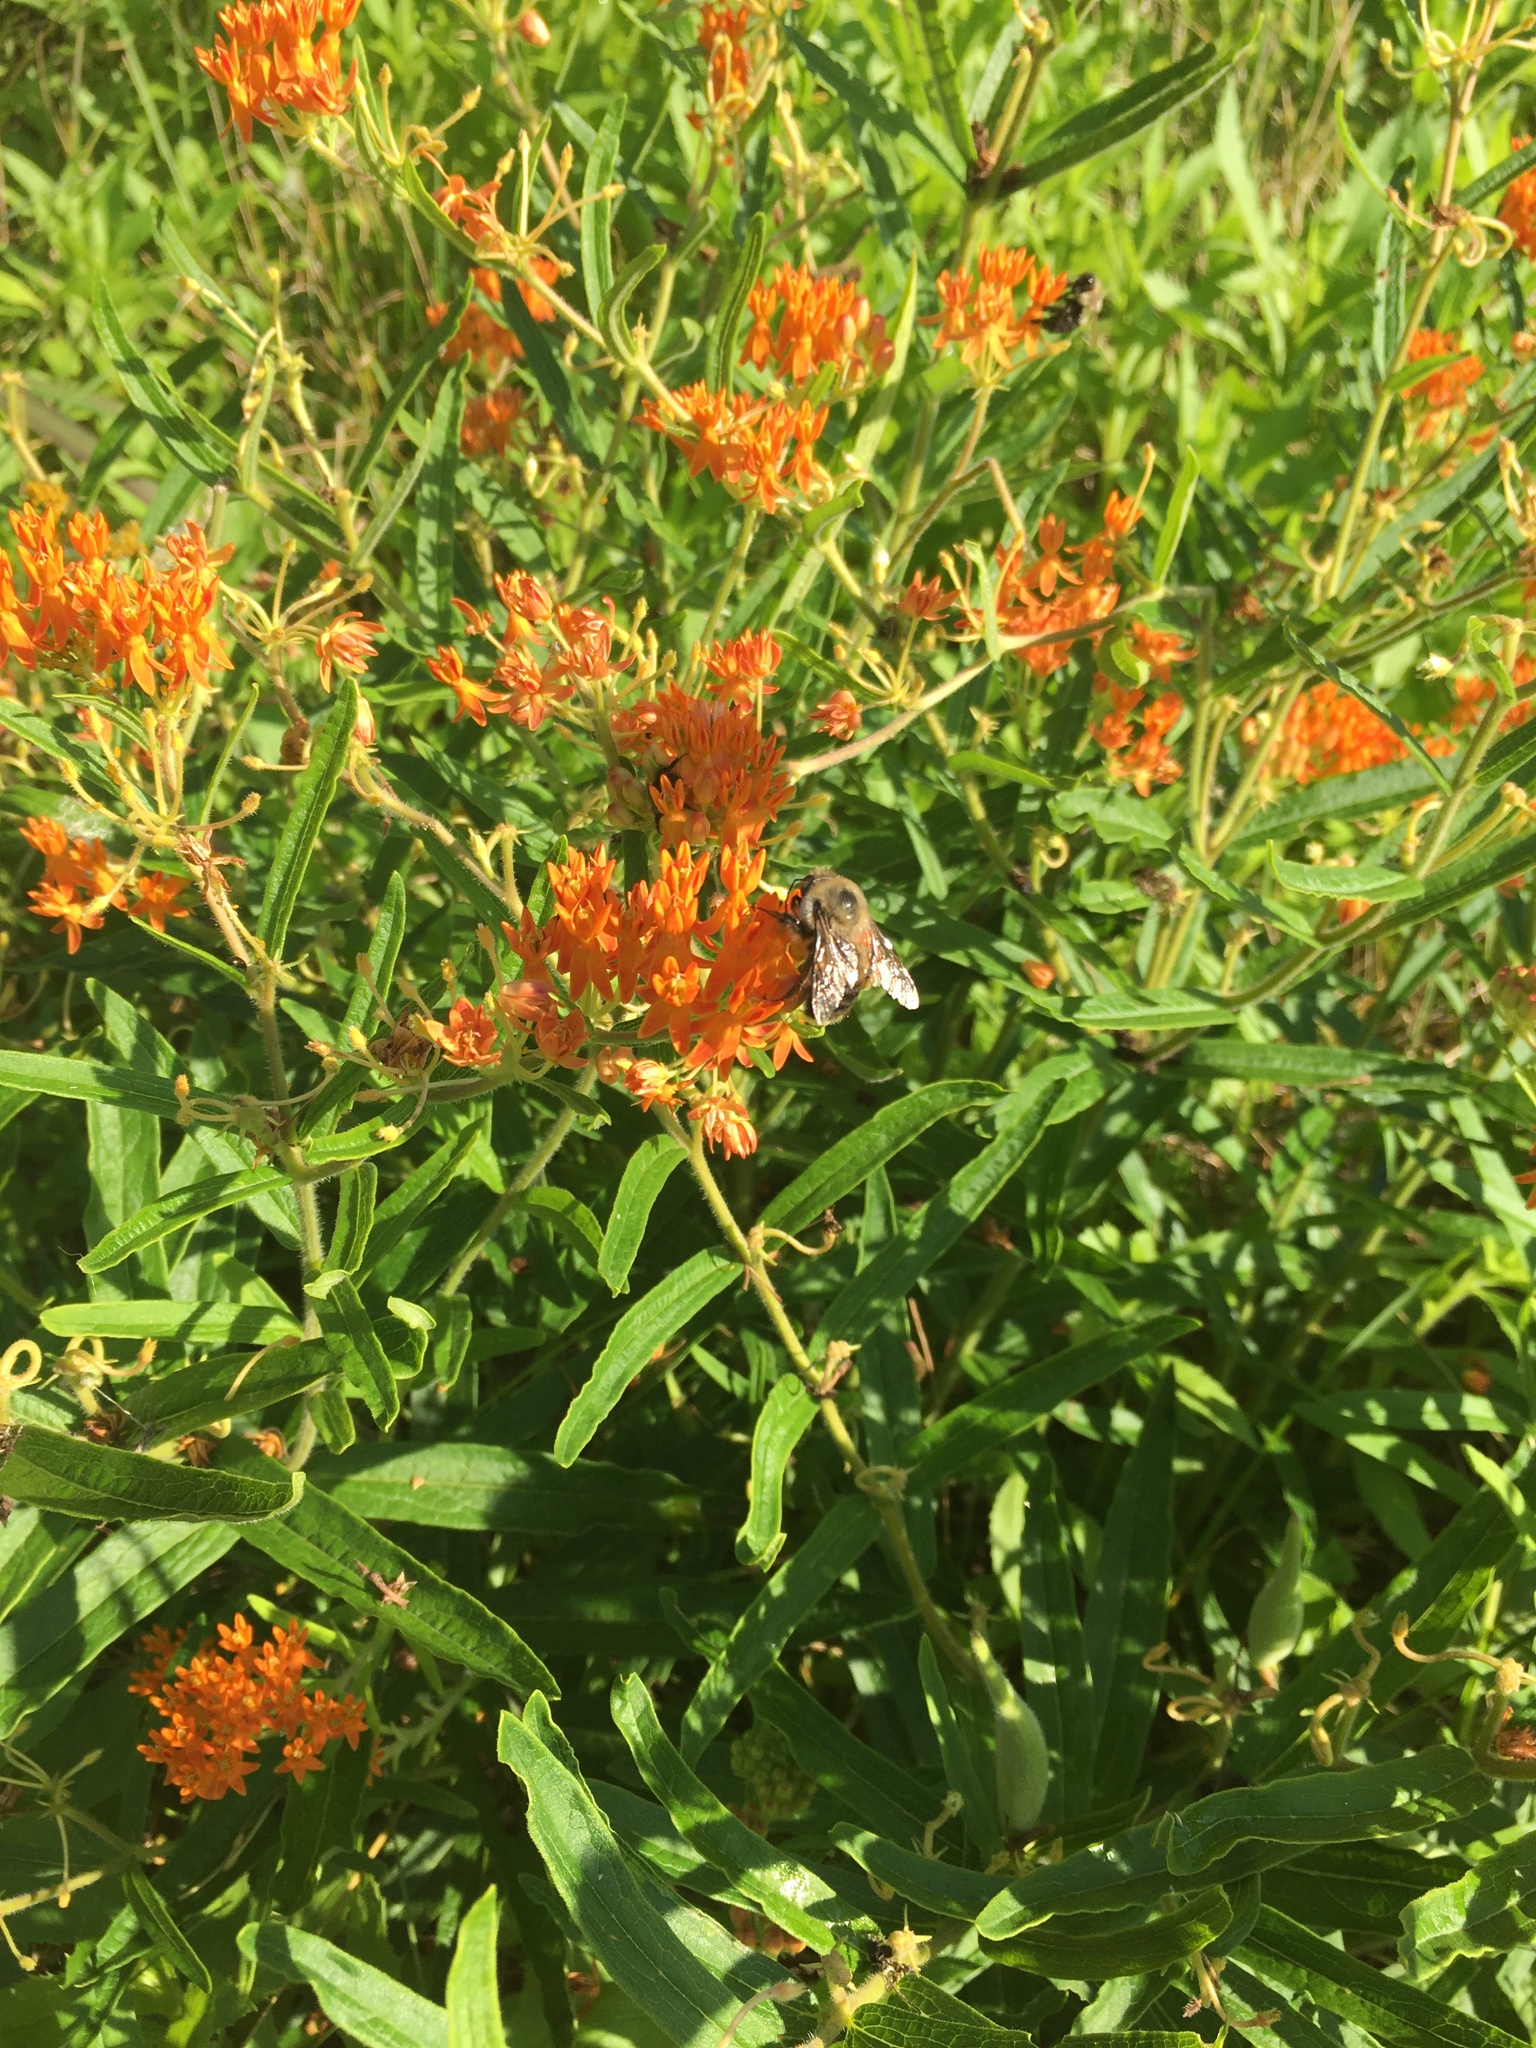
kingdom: Plantae
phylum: Tracheophyta
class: Magnoliopsida
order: Gentianales
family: Apocynaceae
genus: Asclepias
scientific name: Asclepias tuberosa
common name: Butterfly milkweed
